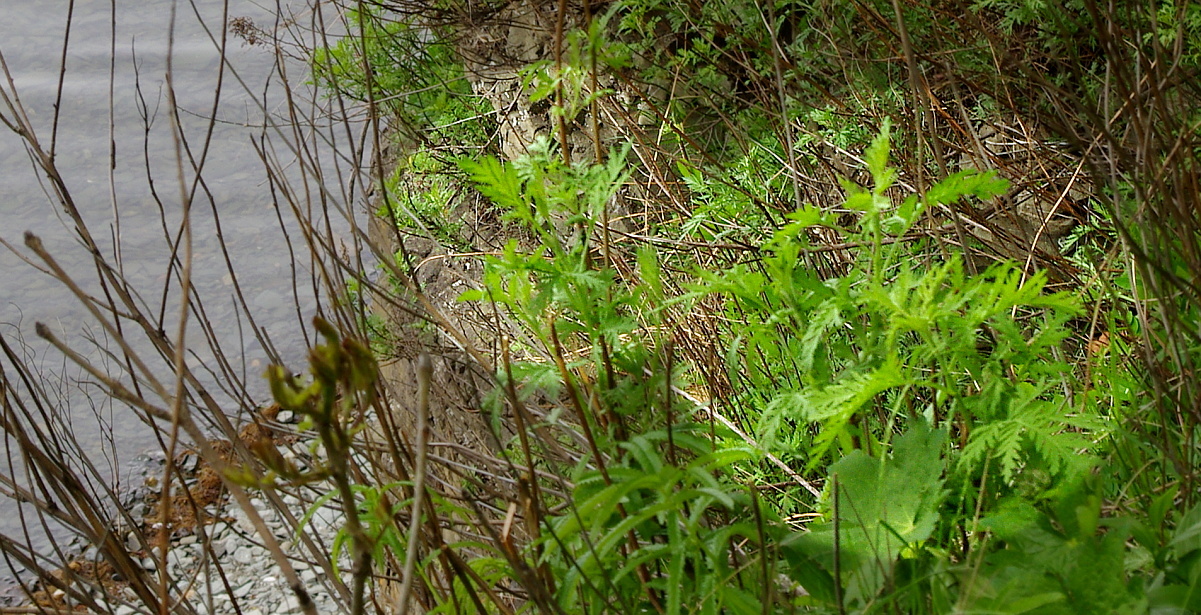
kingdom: Plantae
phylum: Tracheophyta
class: Magnoliopsida
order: Asterales
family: Asteraceae
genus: Artemisia
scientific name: Artemisia gmelinii
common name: Gmelin's wormwood
